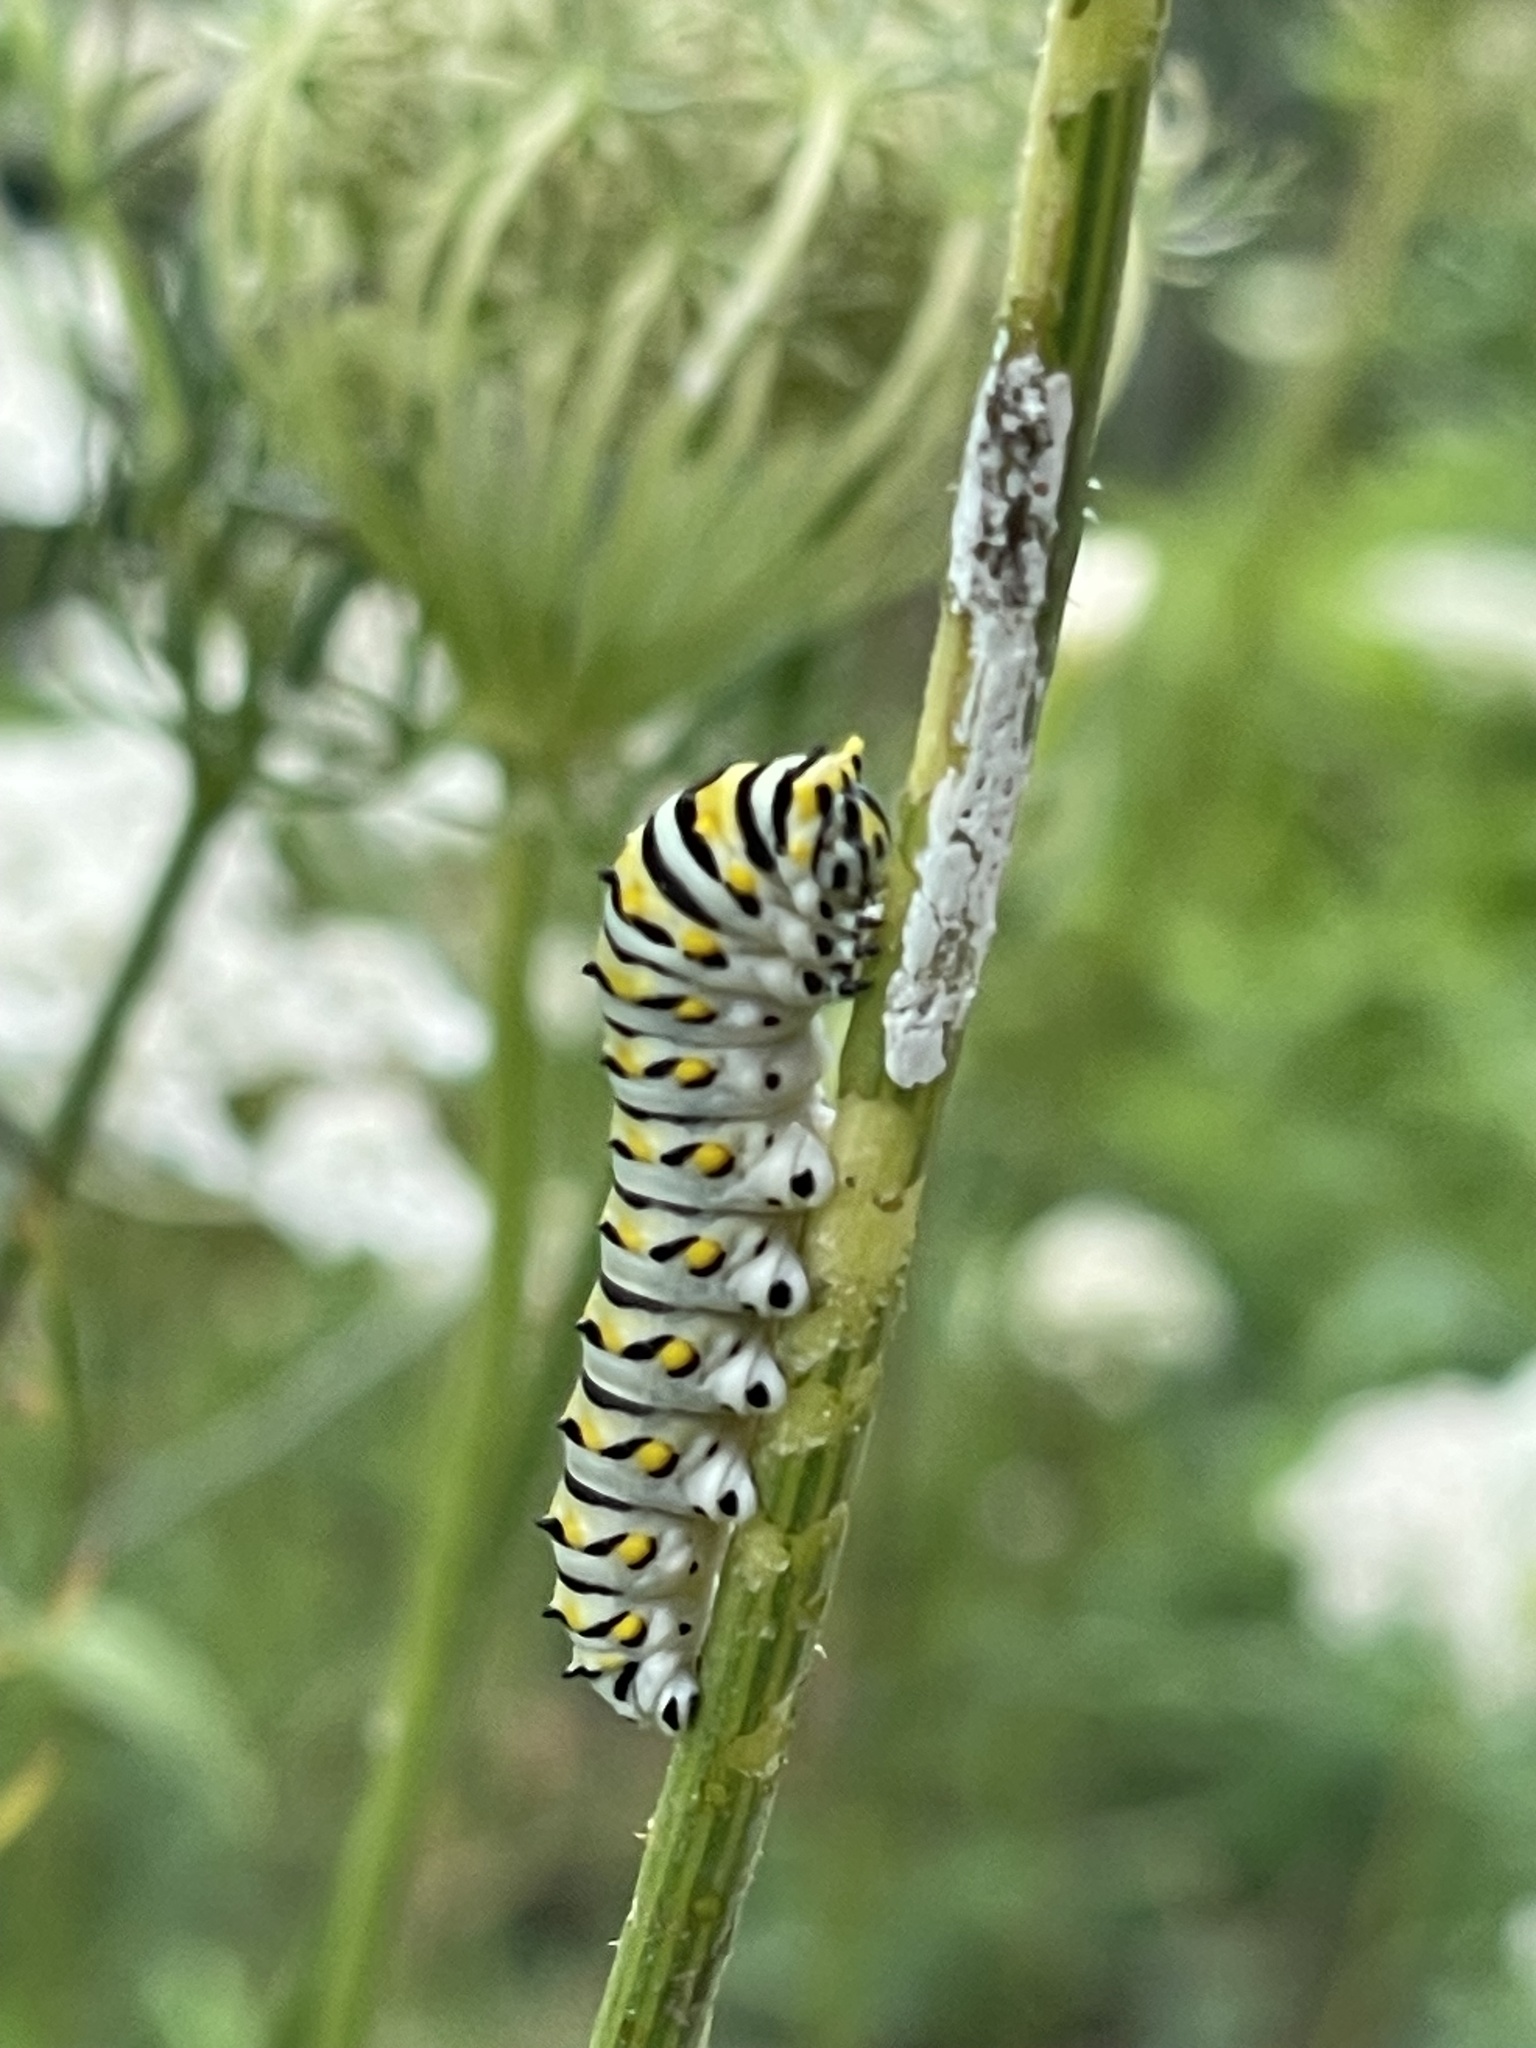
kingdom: Animalia
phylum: Arthropoda
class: Insecta
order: Lepidoptera
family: Papilionidae
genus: Papilio
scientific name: Papilio polyxenes
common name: Black swallowtail
